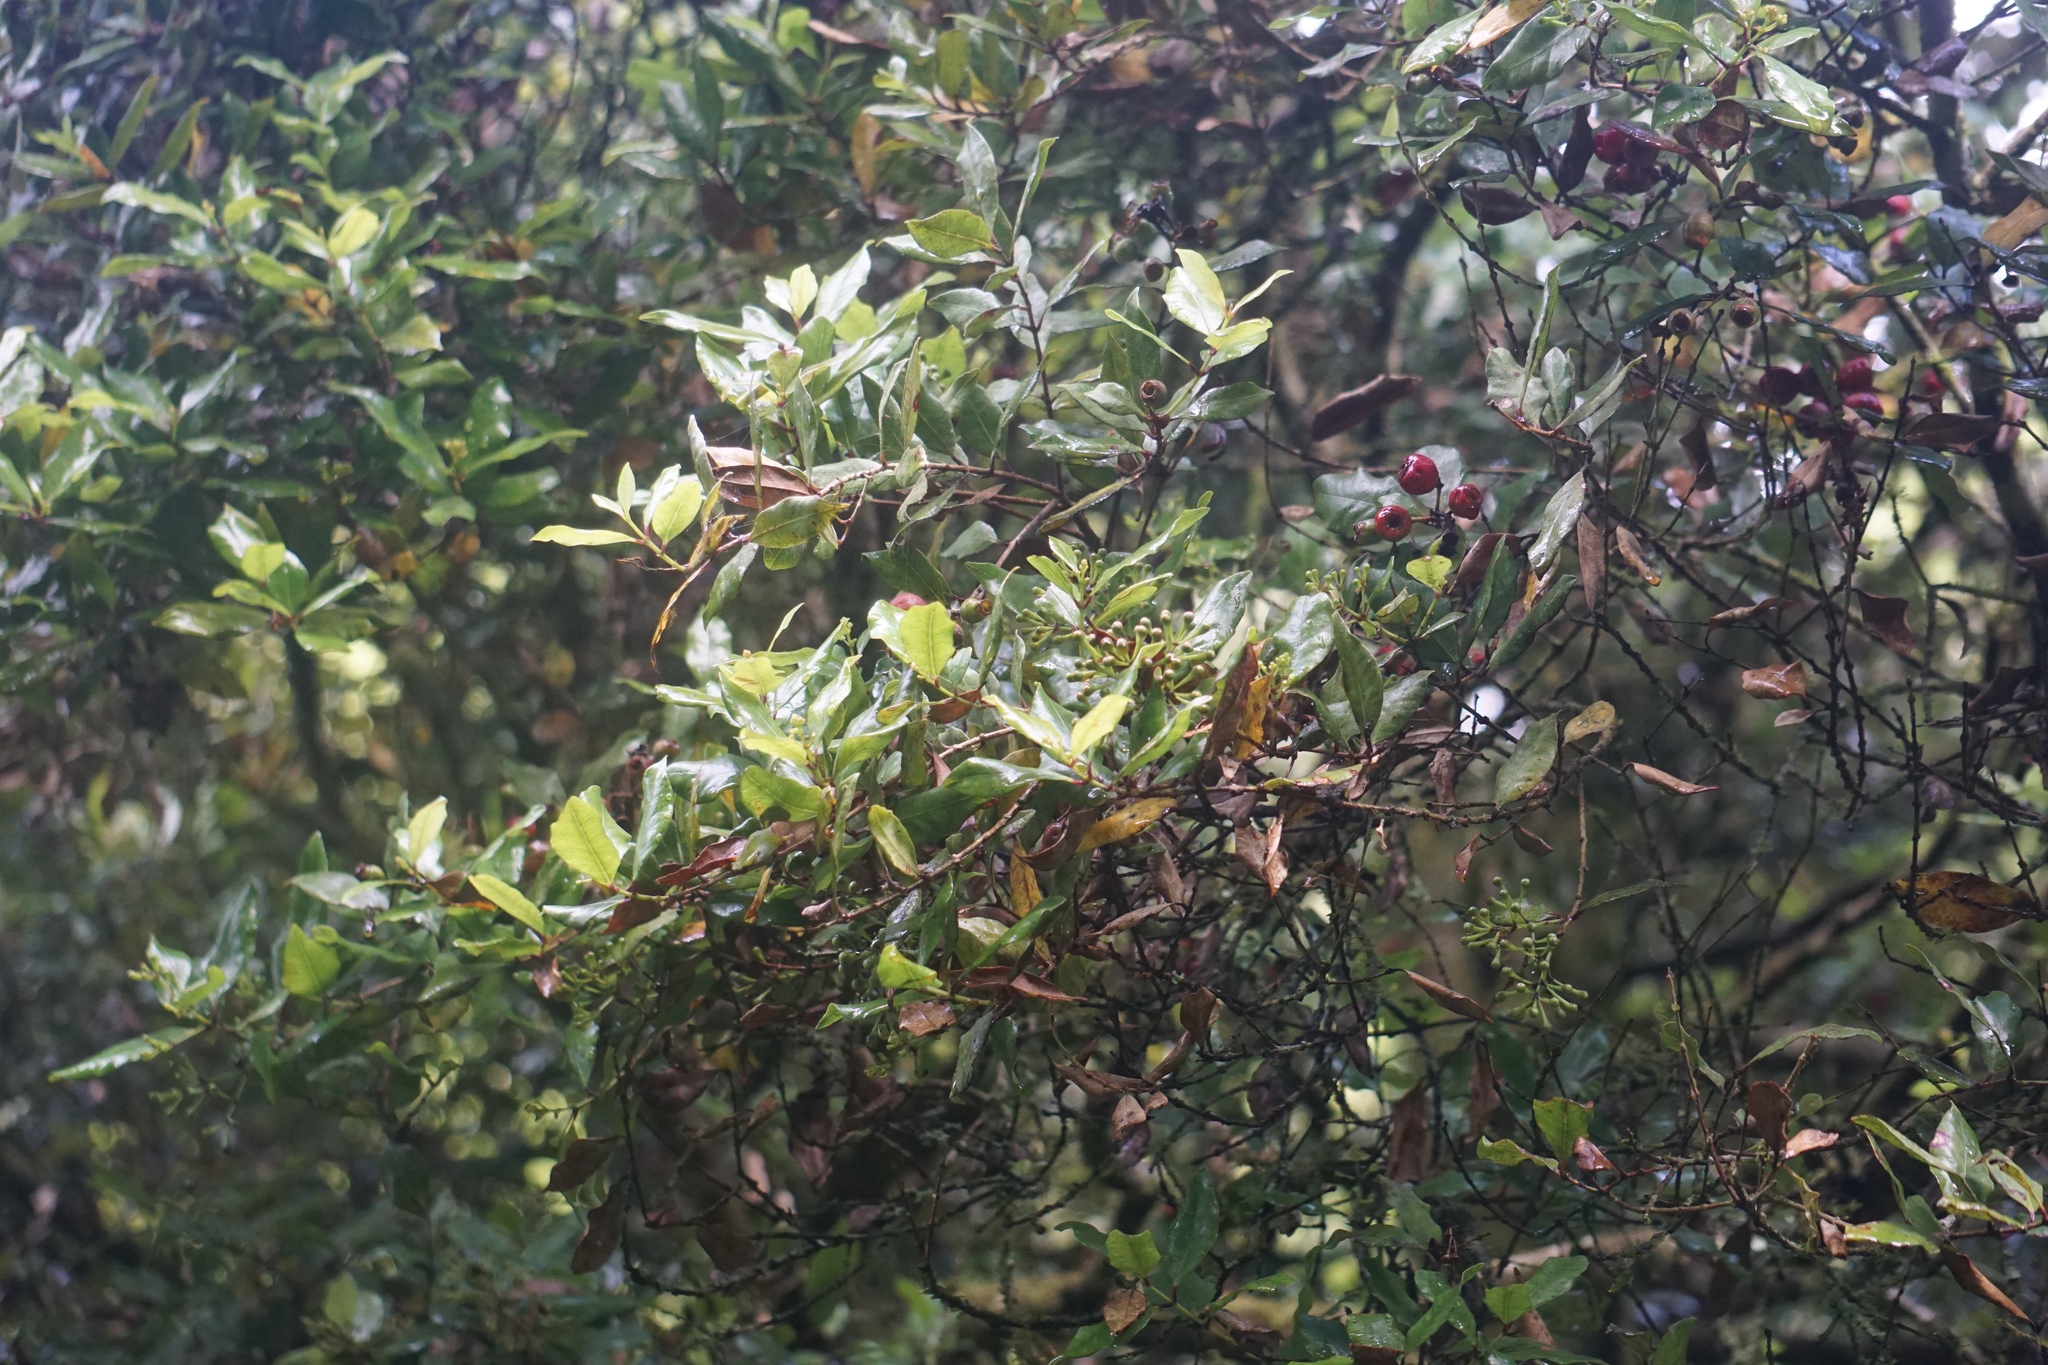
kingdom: Plantae
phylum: Tracheophyta
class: Magnoliopsida
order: Myrtales
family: Myrtaceae
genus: Syzygium
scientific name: Syzygium maire
